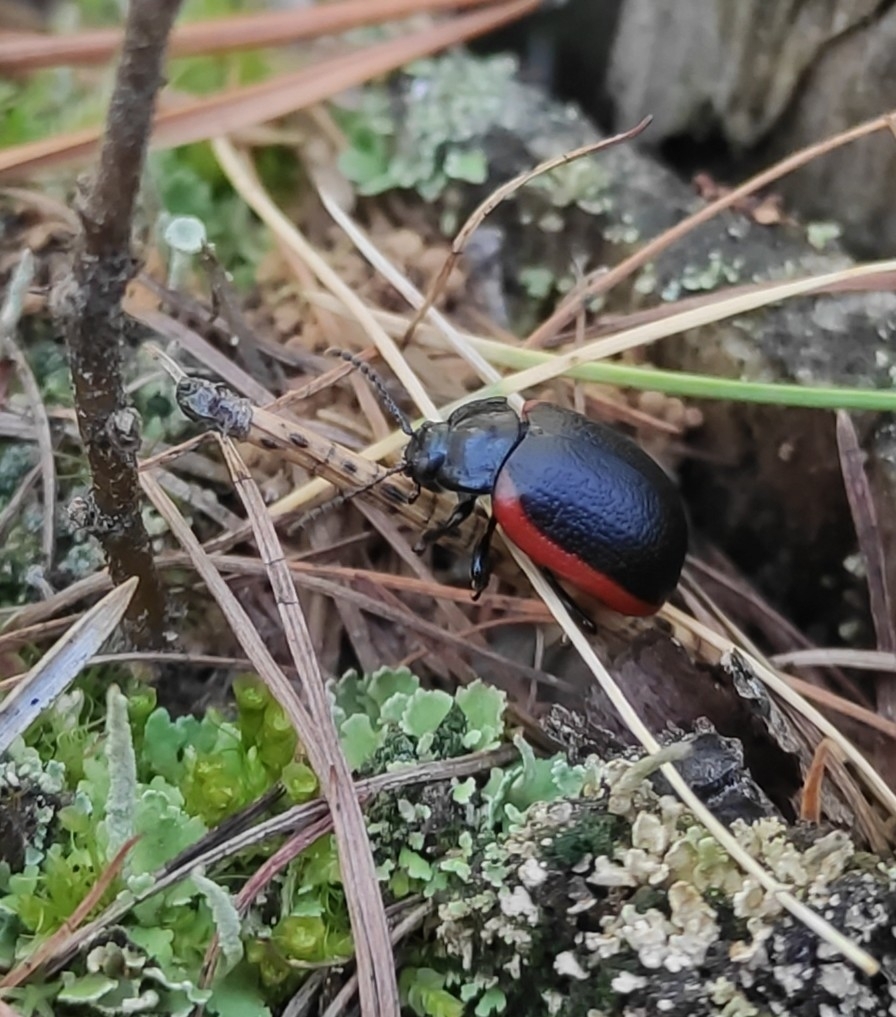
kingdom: Animalia
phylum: Arthropoda
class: Insecta
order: Coleoptera
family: Chrysomelidae
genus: Chrysolina
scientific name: Chrysolina sanguinolenta
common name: Toadflax leaf beetle
